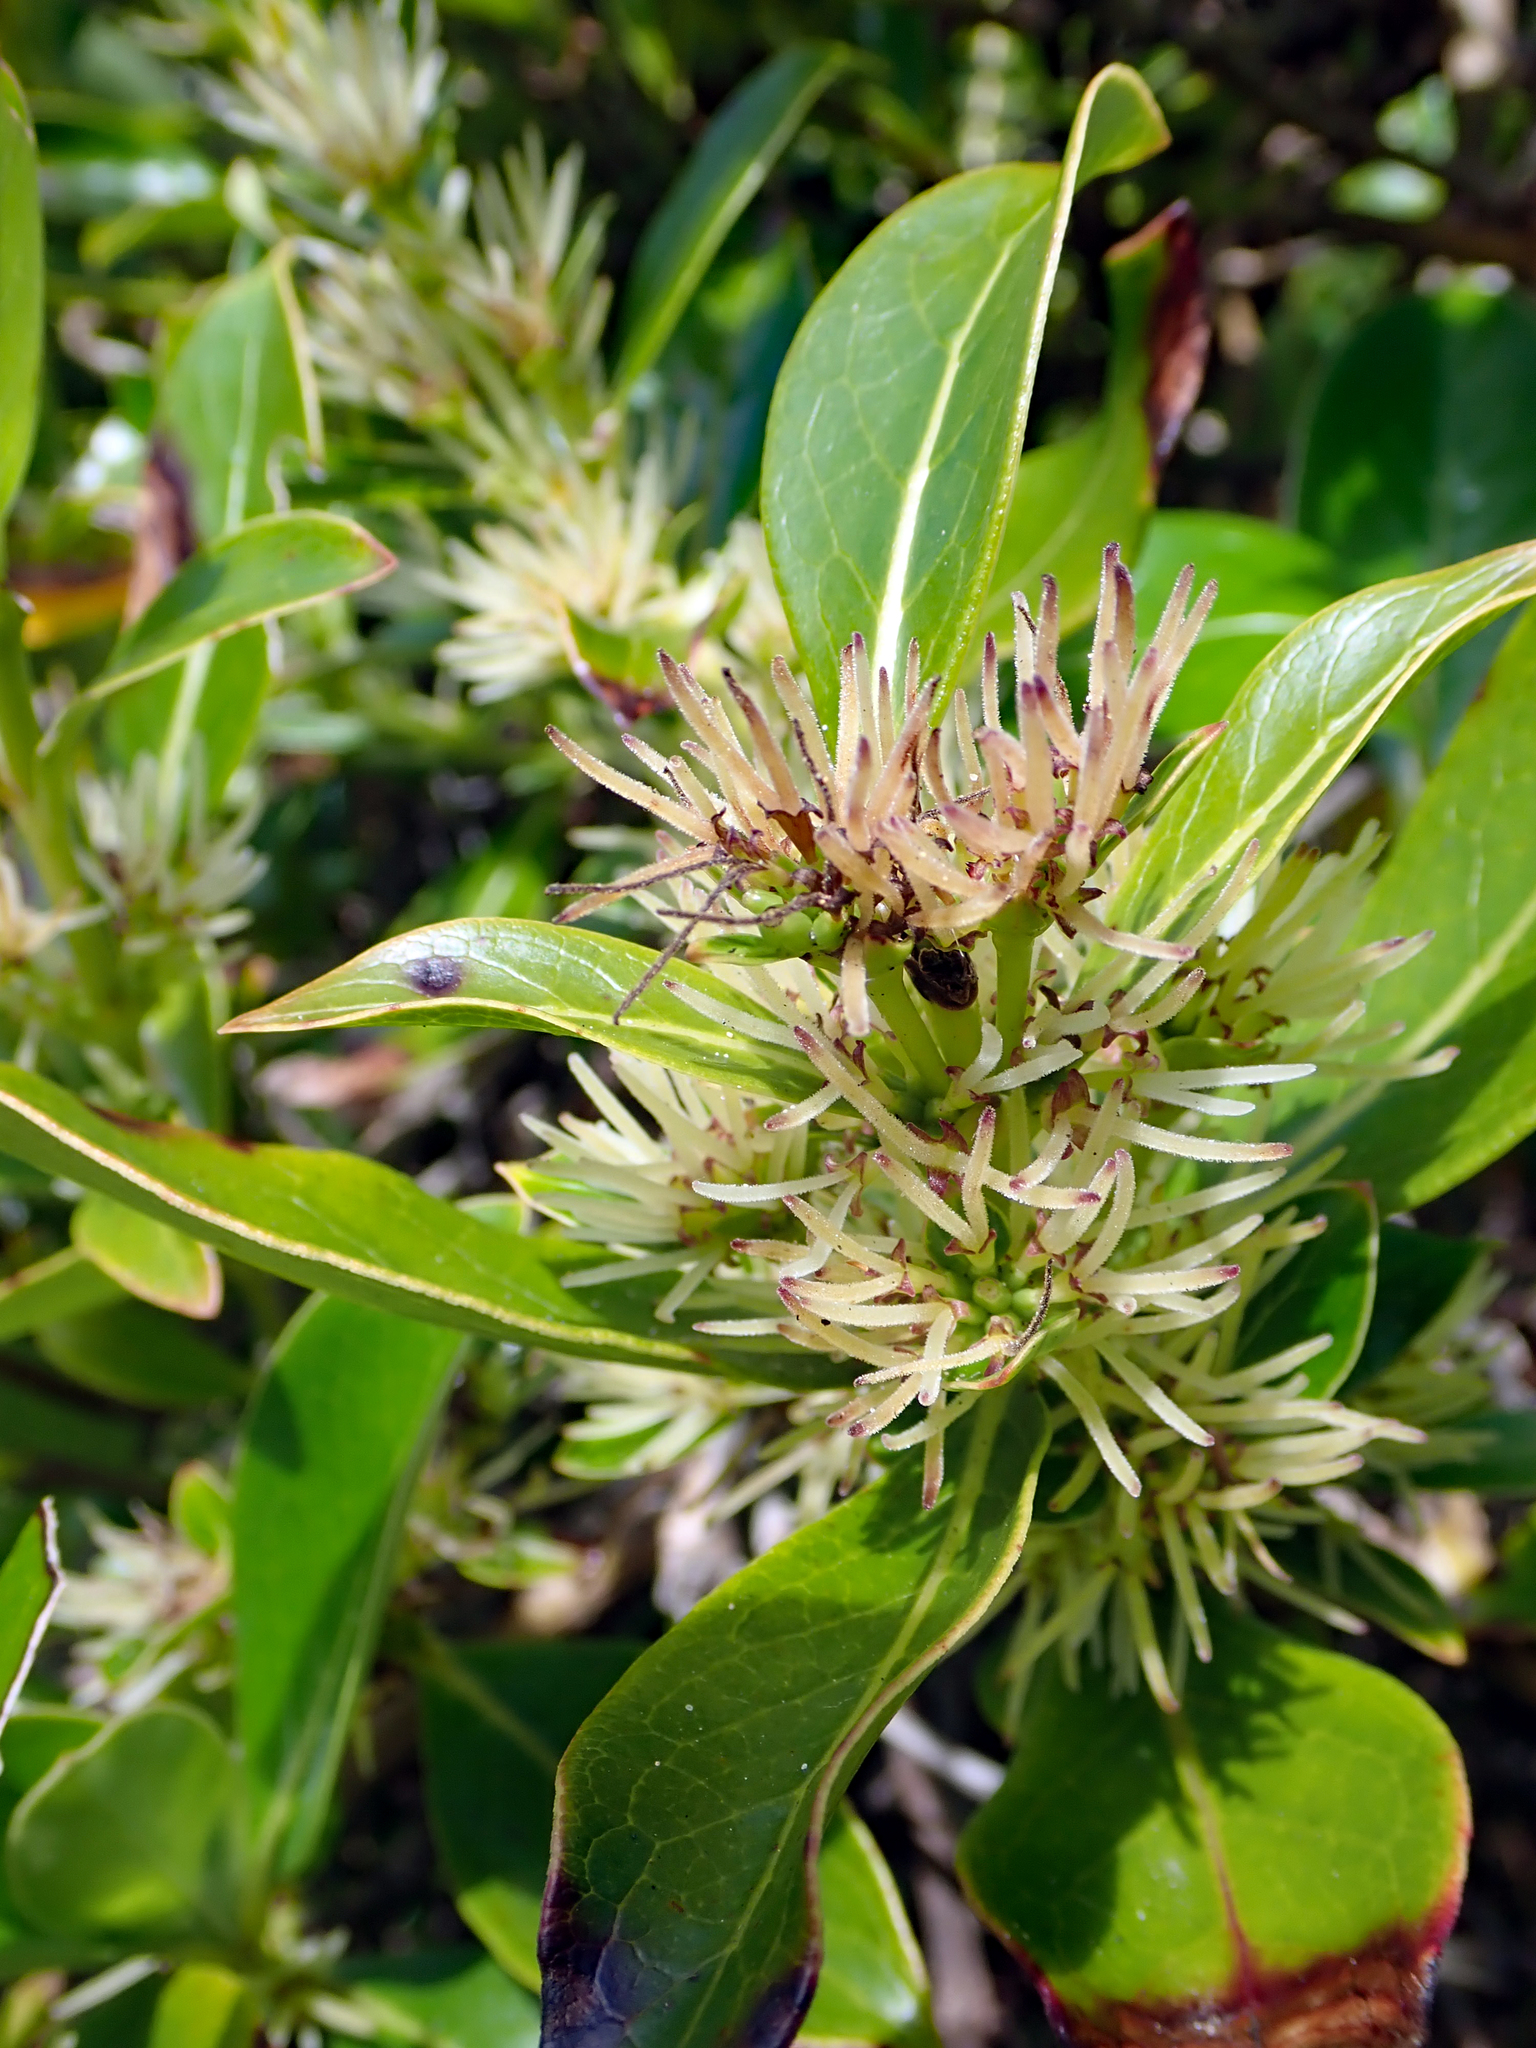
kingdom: Plantae
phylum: Tracheophyta
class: Magnoliopsida
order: Gentianales
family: Rubiaceae
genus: Coprosma
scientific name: Coprosma robusta
